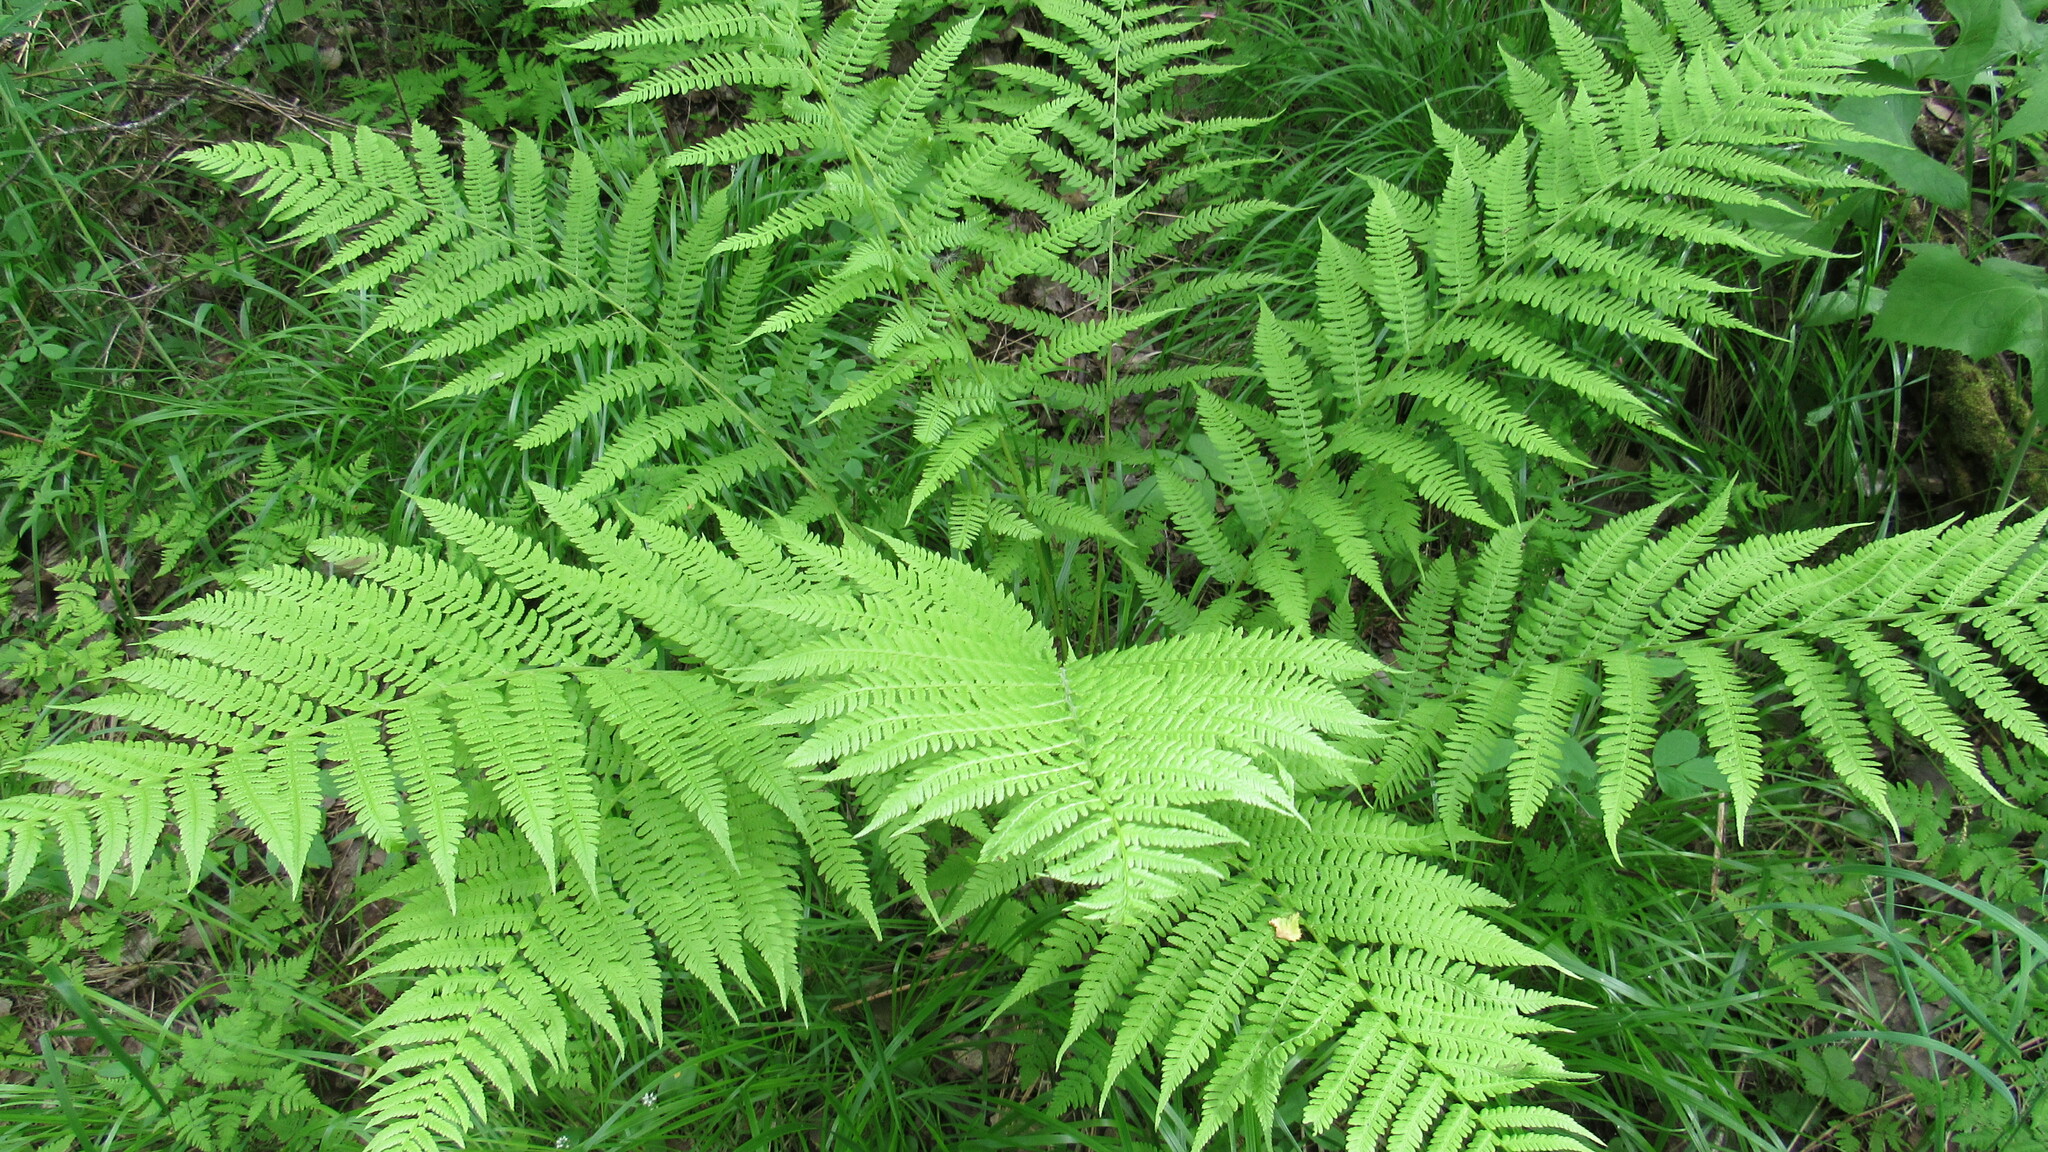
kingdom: Plantae
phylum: Tracheophyta
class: Polypodiopsida
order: Polypodiales
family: Athyriaceae
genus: Athyrium
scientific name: Athyrium filix-femina
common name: Lady fern
